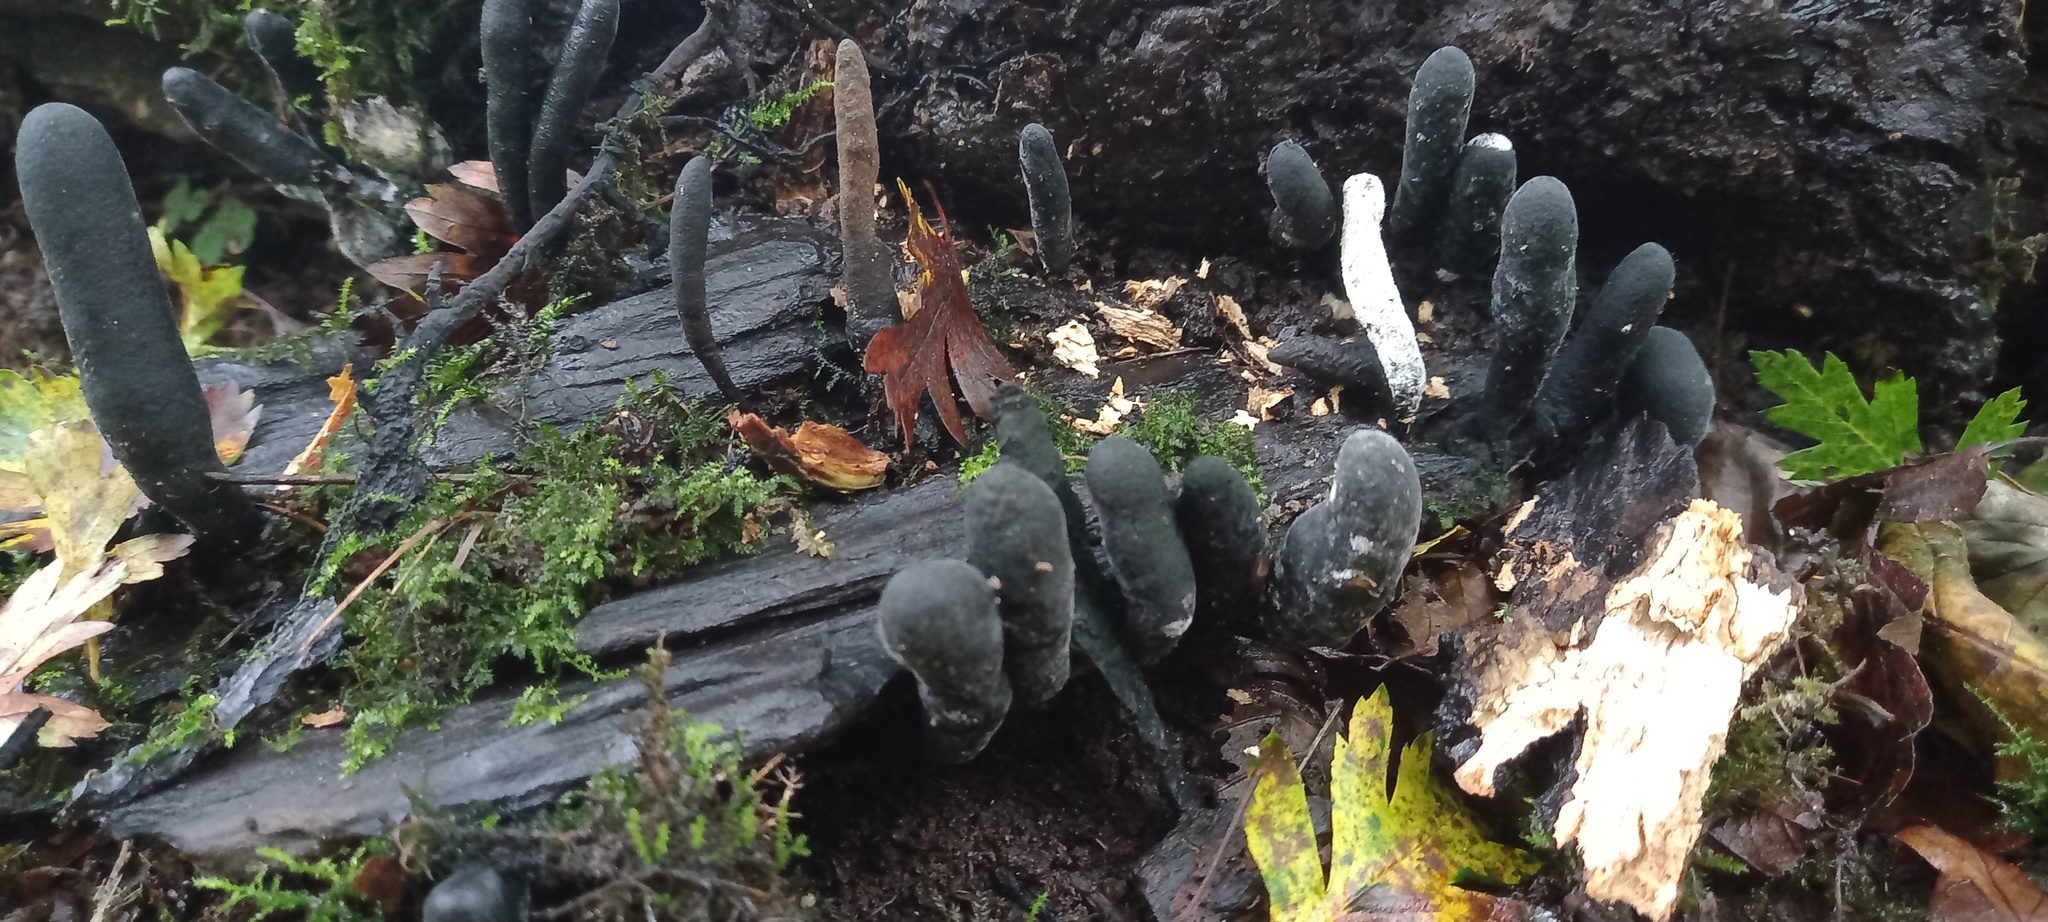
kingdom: Fungi
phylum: Ascomycota
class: Sordariomycetes
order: Xylariales
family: Xylariaceae
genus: Xylaria
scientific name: Xylaria polymorpha
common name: Dead man's fingers
